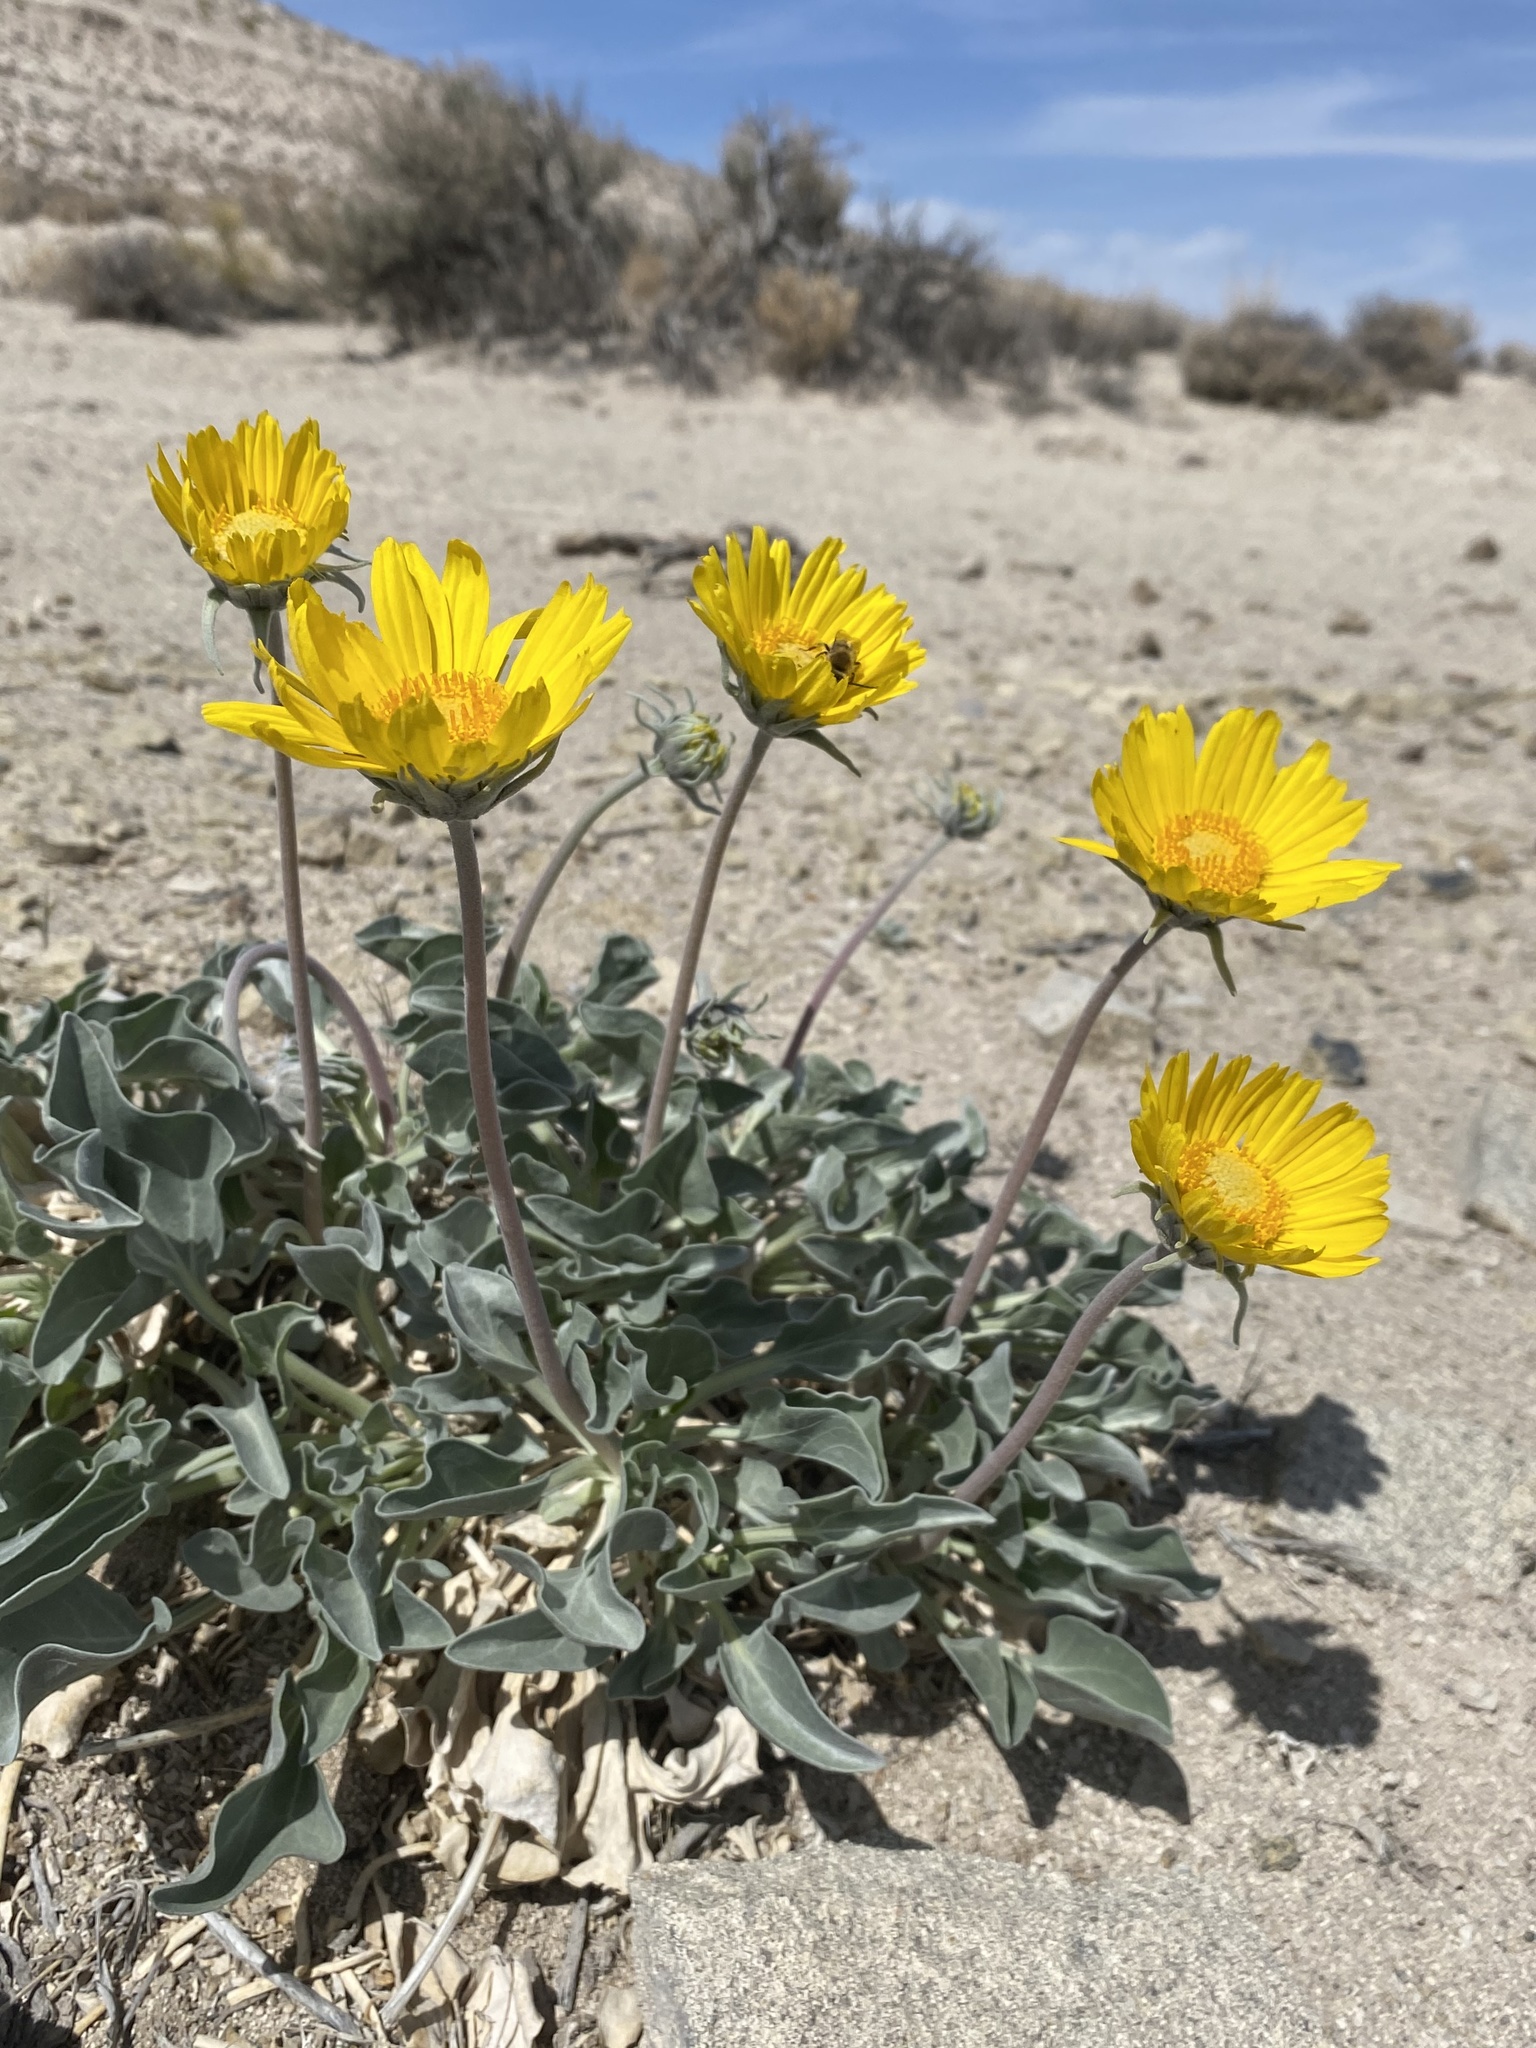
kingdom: Plantae
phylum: Tracheophyta
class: Magnoliopsida
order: Asterales
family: Asteraceae
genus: Enceliopsis
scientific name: Enceliopsis nudicaulis
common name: Naked-stem daisy
